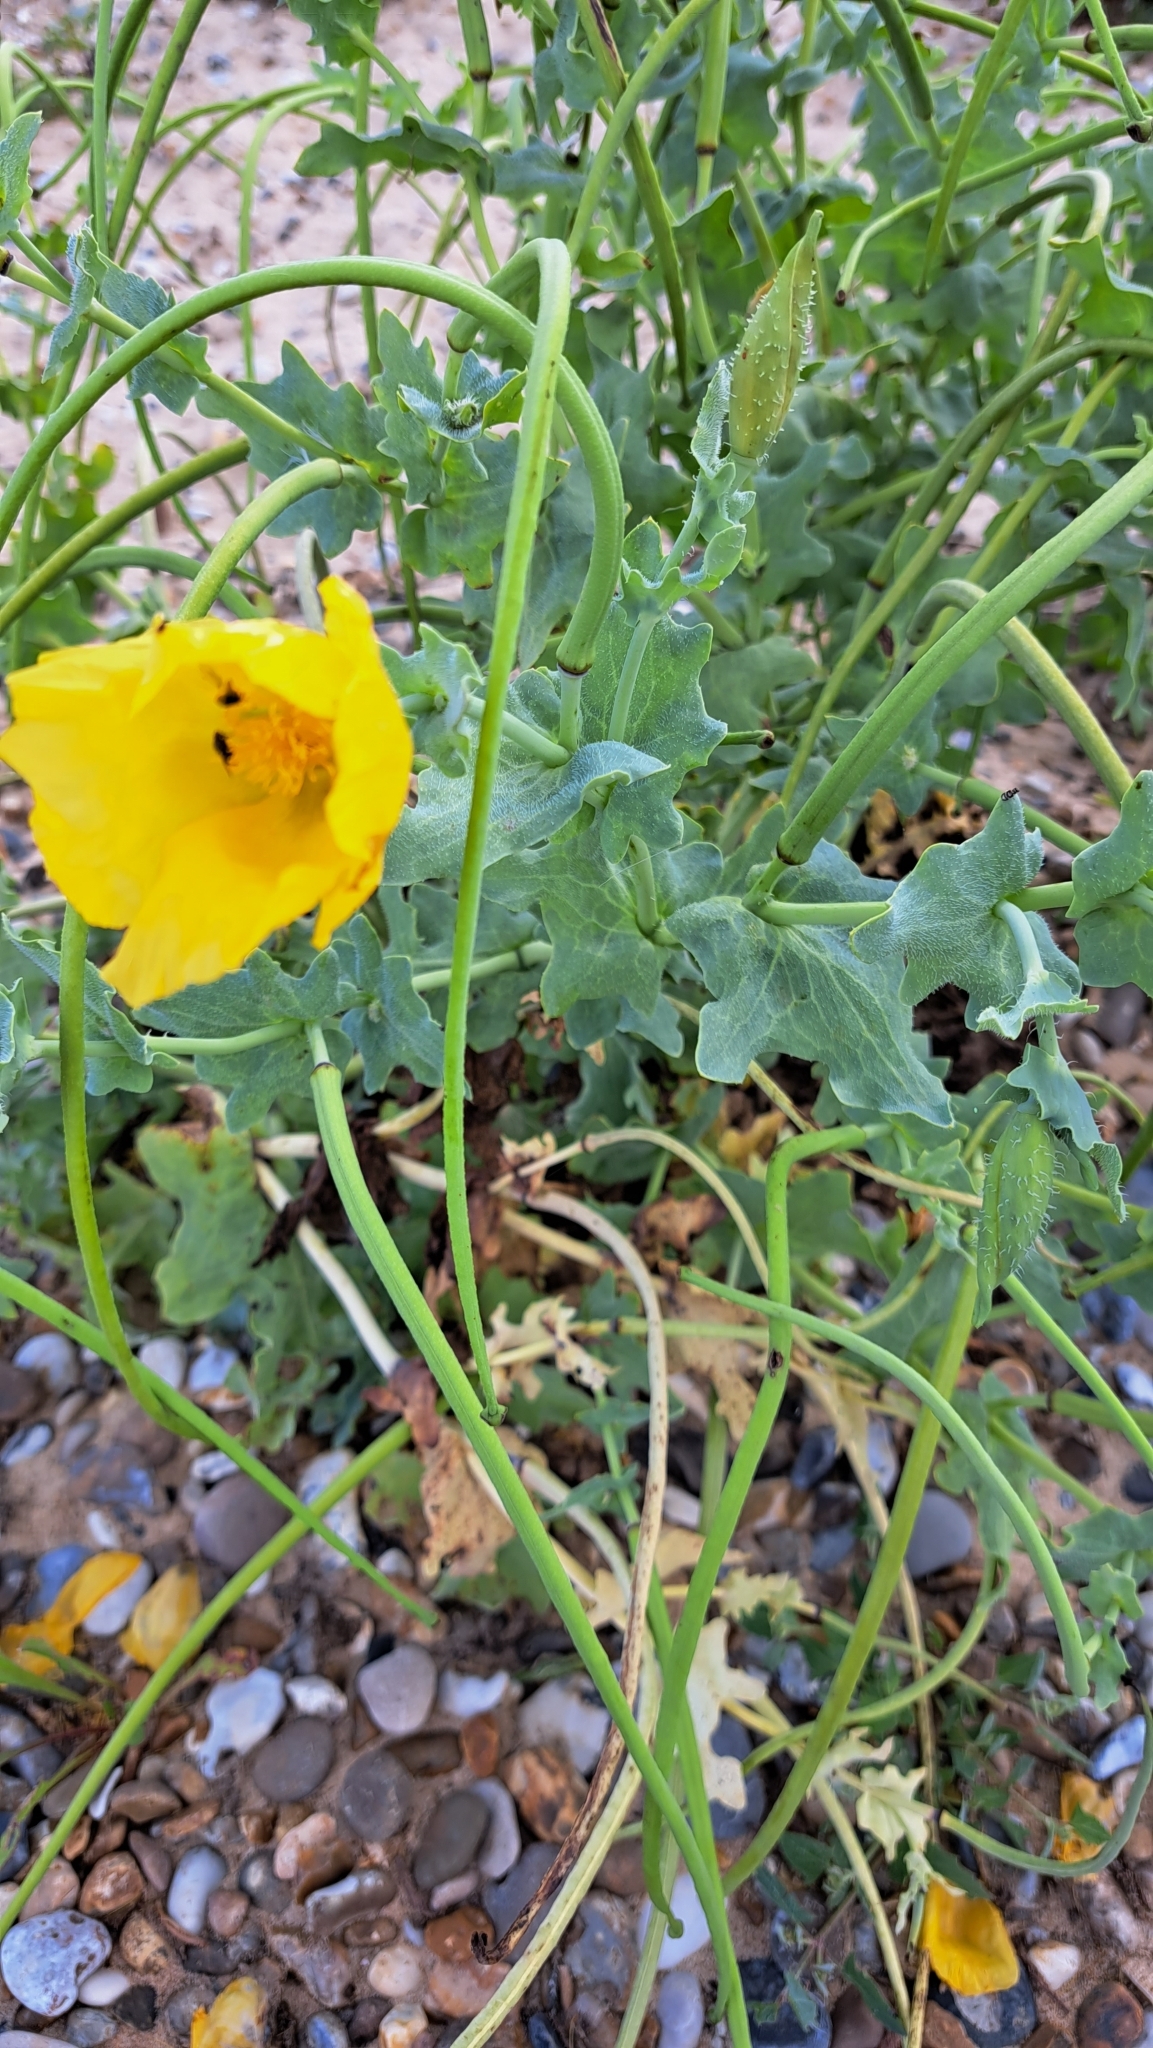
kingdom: Plantae
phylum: Tracheophyta
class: Magnoliopsida
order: Ranunculales
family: Papaveraceae
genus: Glaucium
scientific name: Glaucium flavum
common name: Yellow horned-poppy
